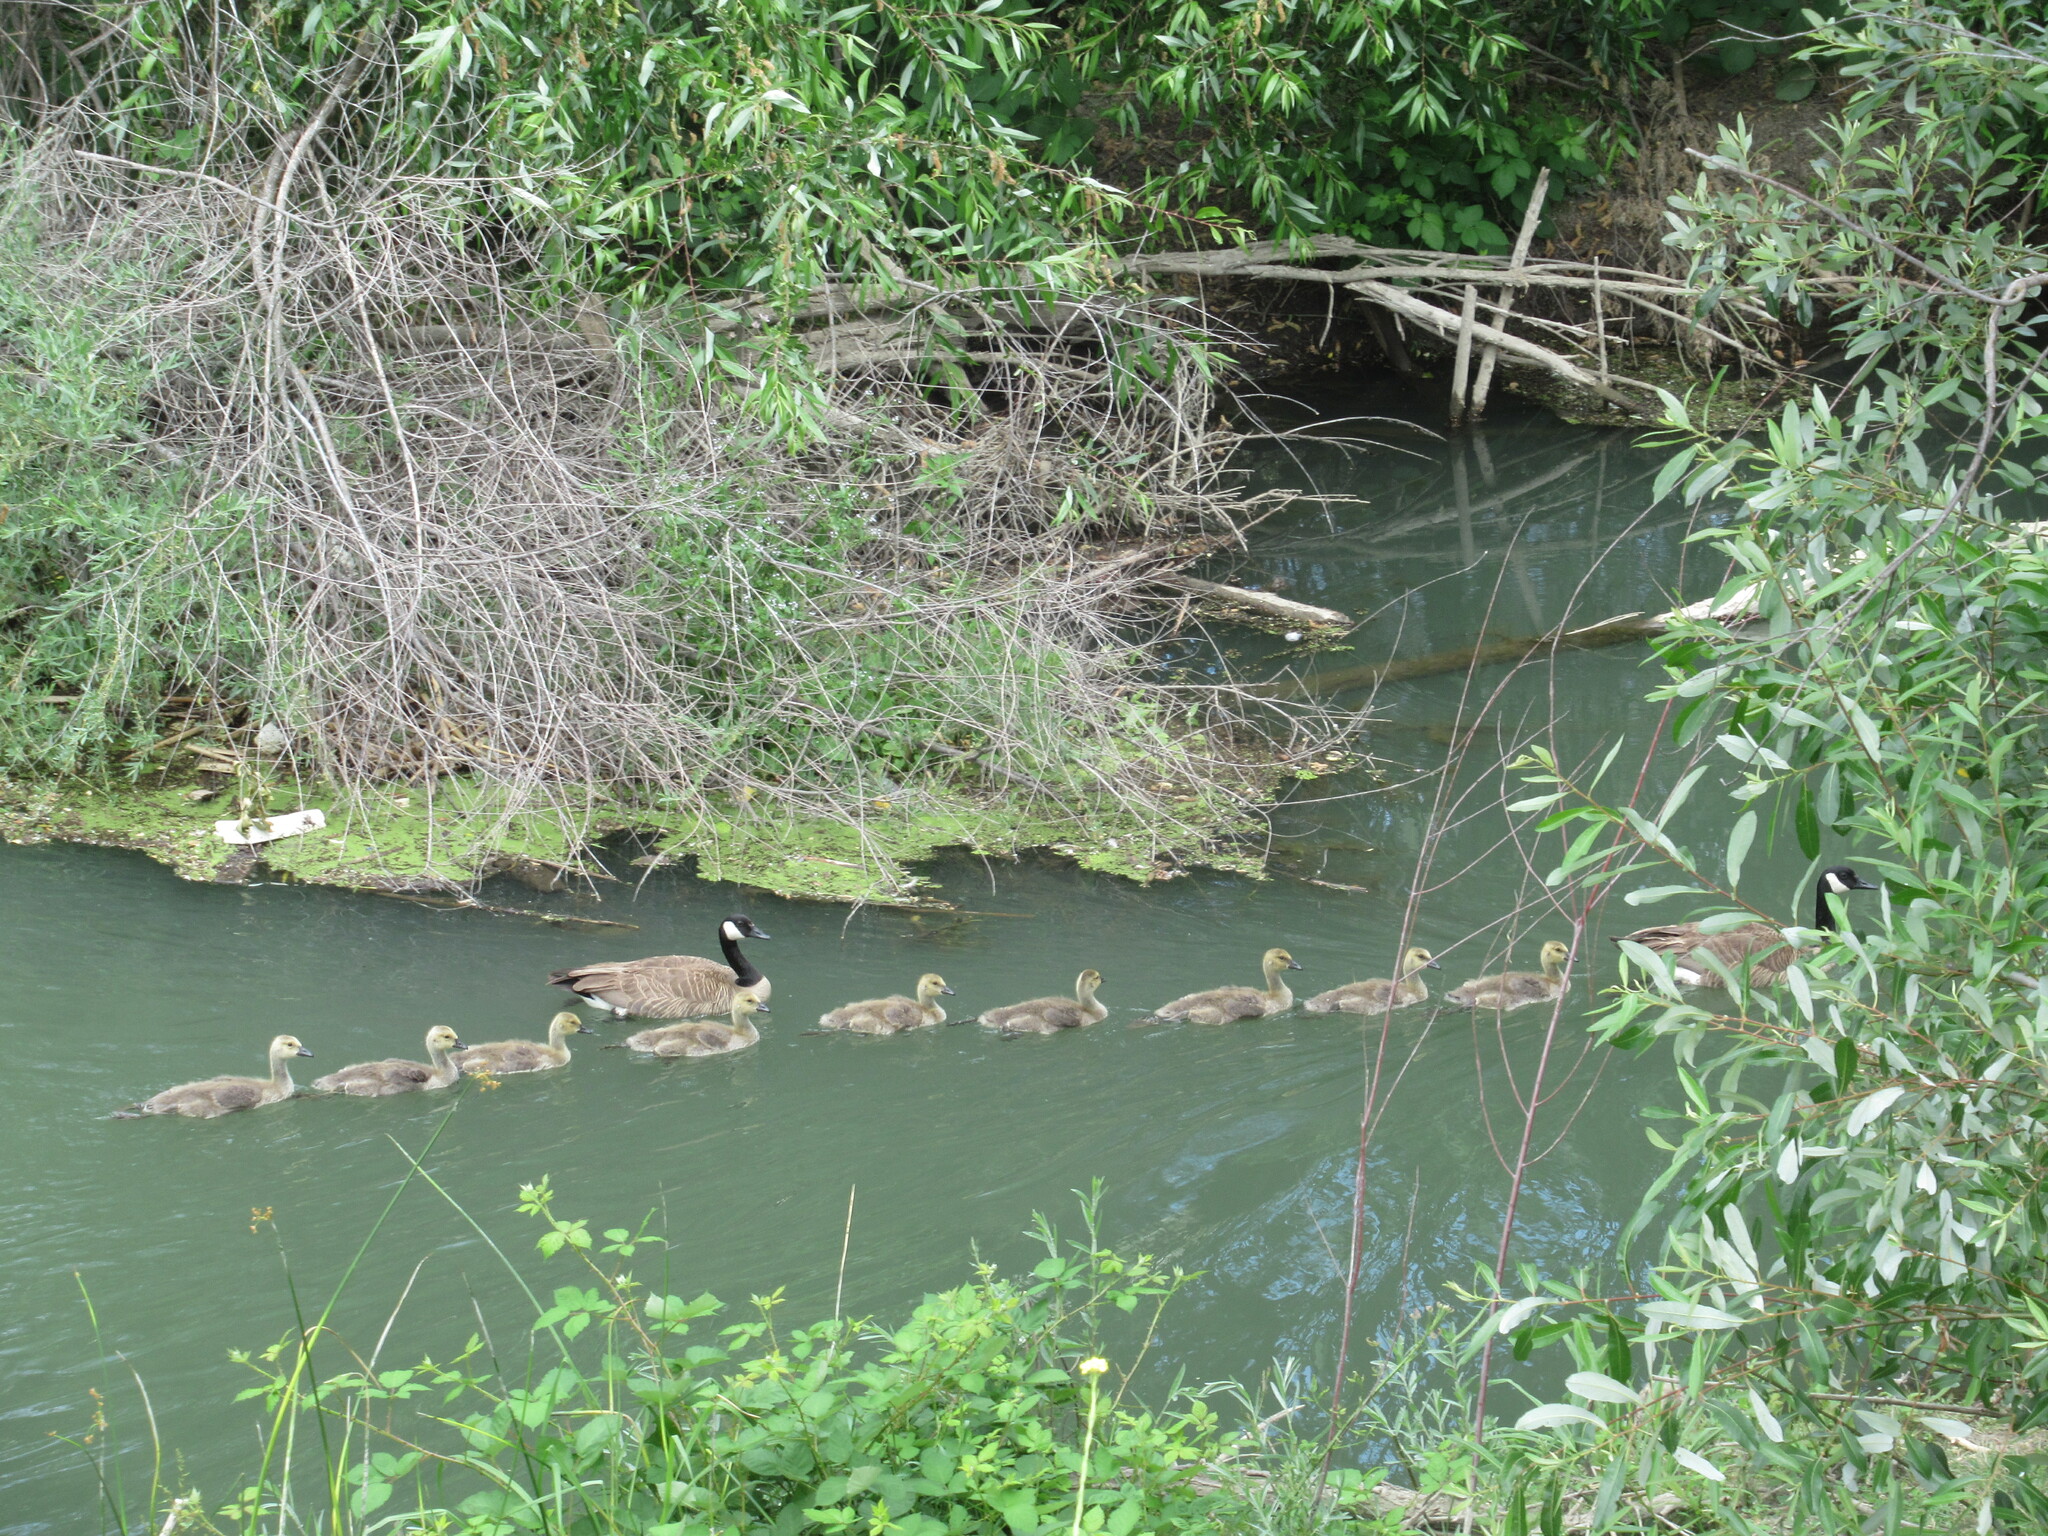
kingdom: Animalia
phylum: Chordata
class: Aves
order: Anseriformes
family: Anatidae
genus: Branta
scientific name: Branta canadensis
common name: Canada goose
